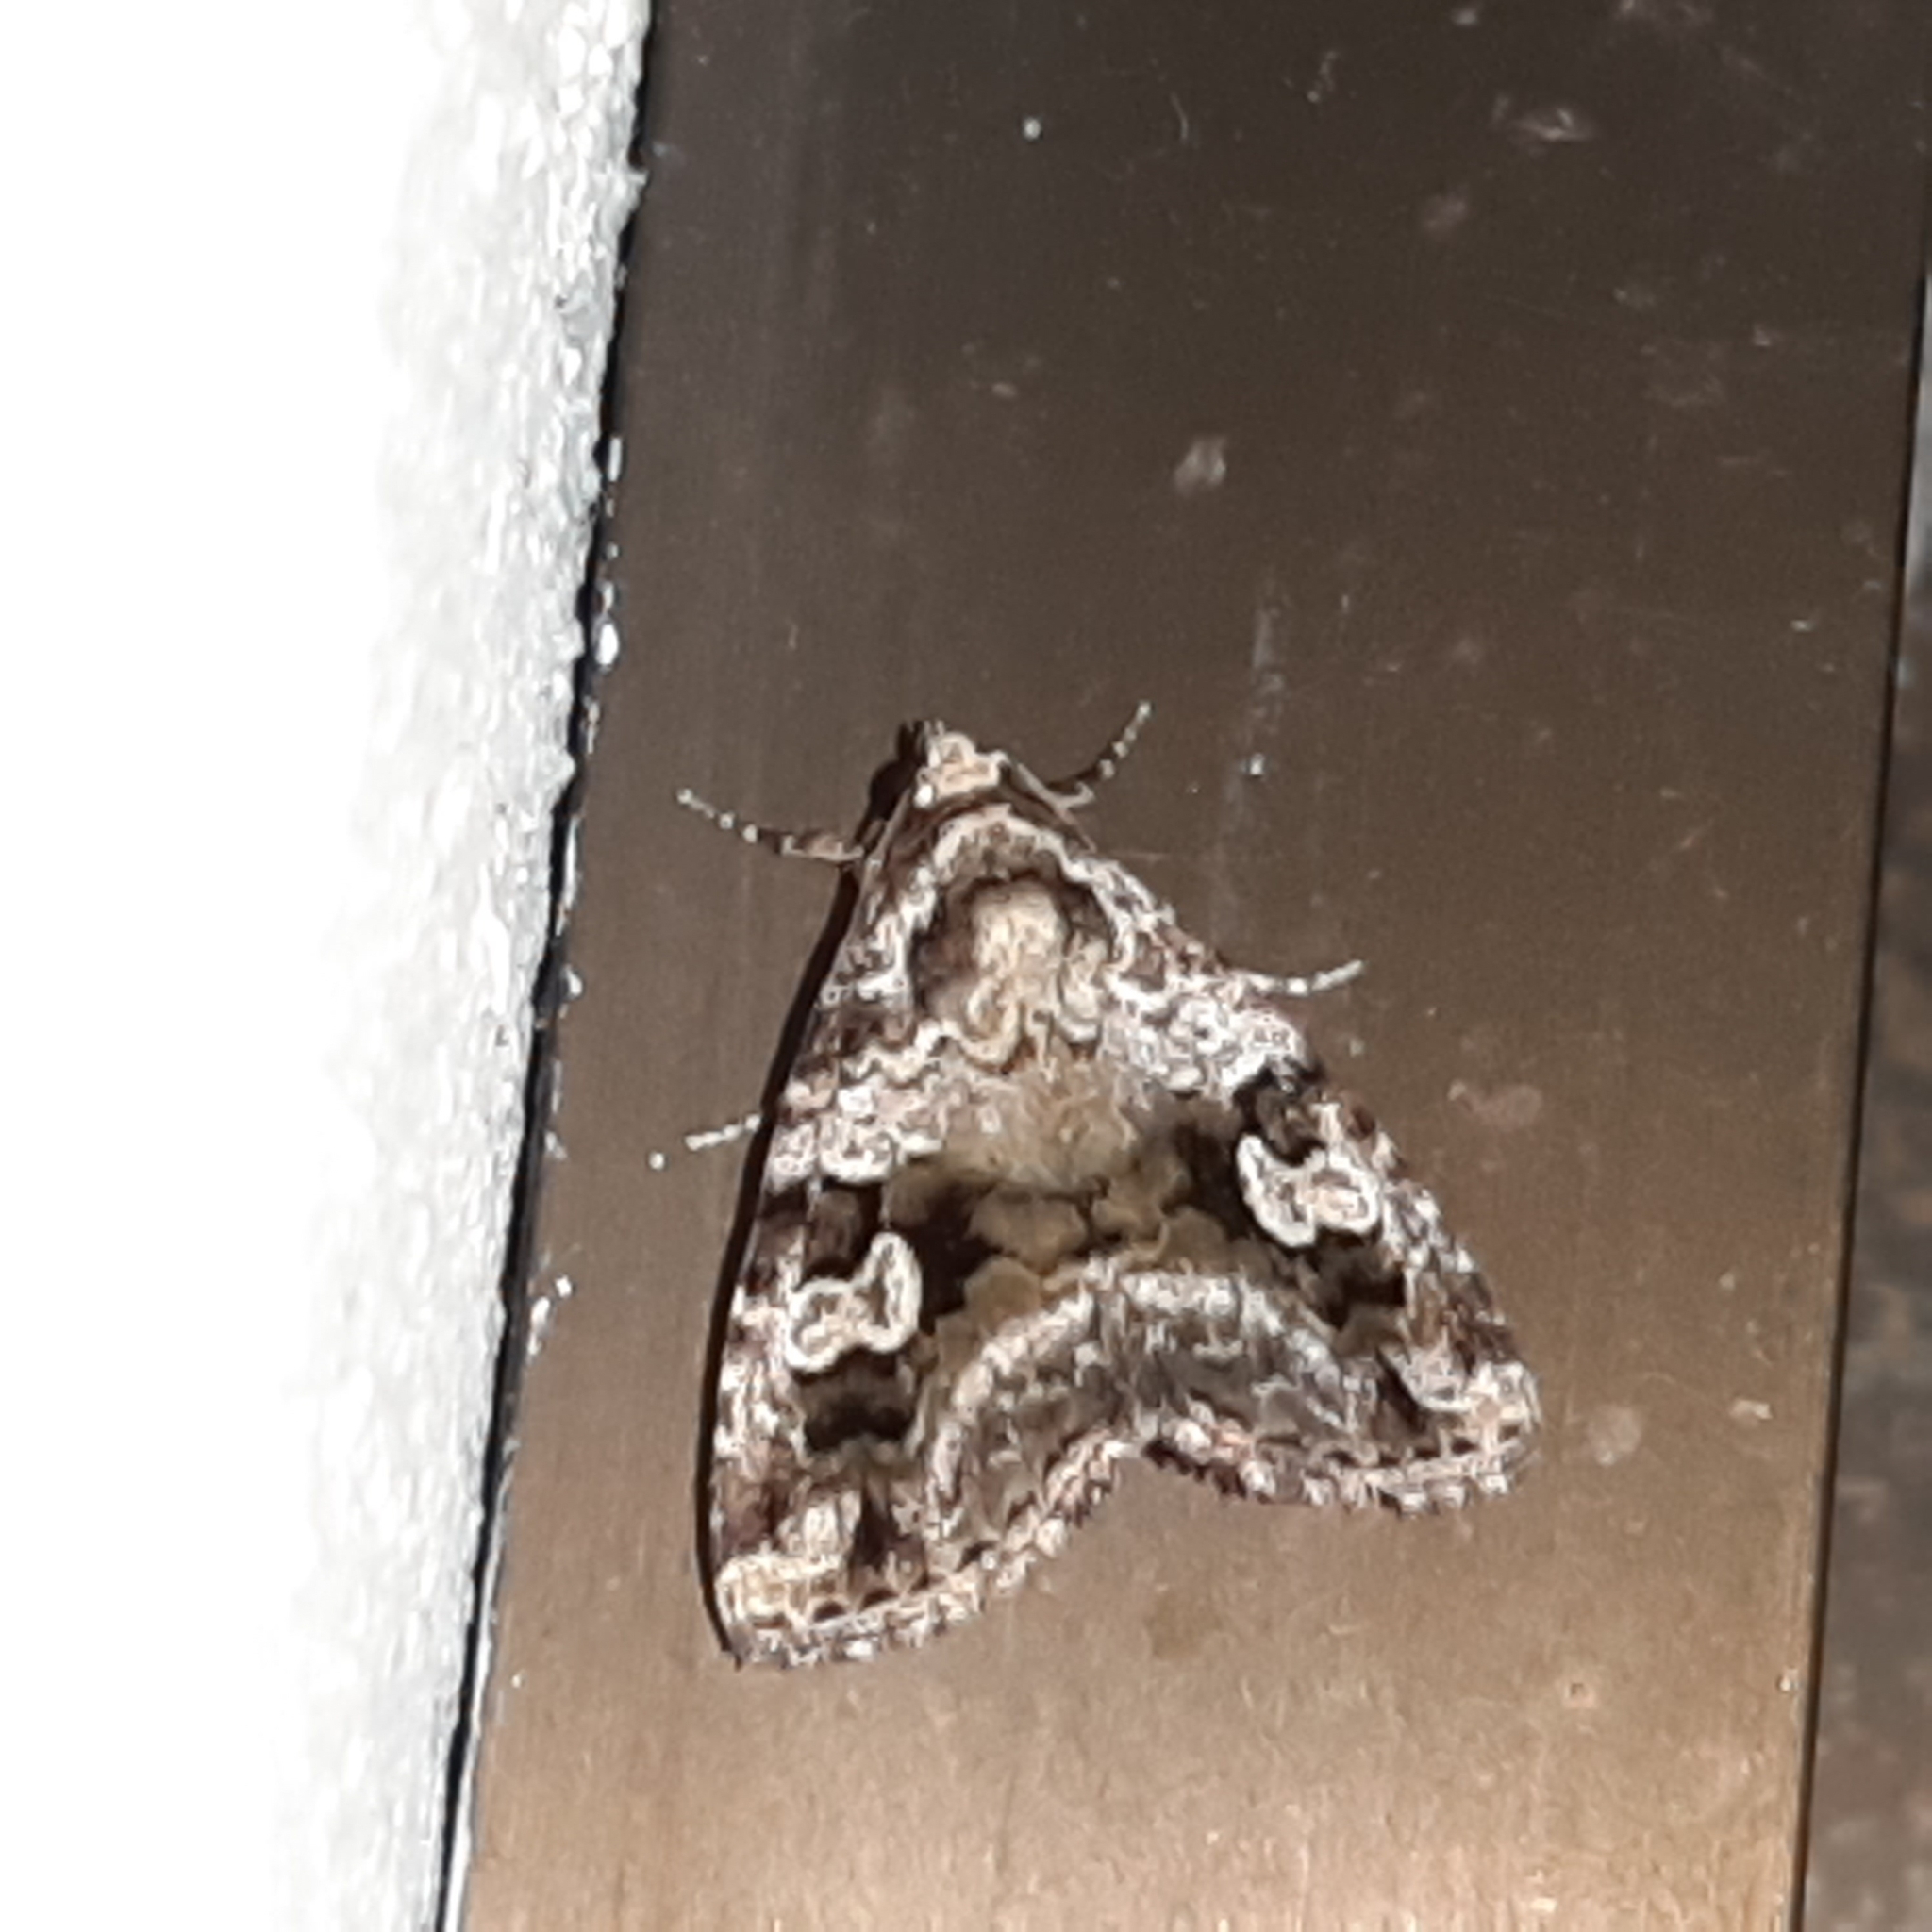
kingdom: Animalia
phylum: Arthropoda
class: Insecta
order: Lepidoptera
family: Noctuidae
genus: Mictochroa
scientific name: Mictochroa zonella
